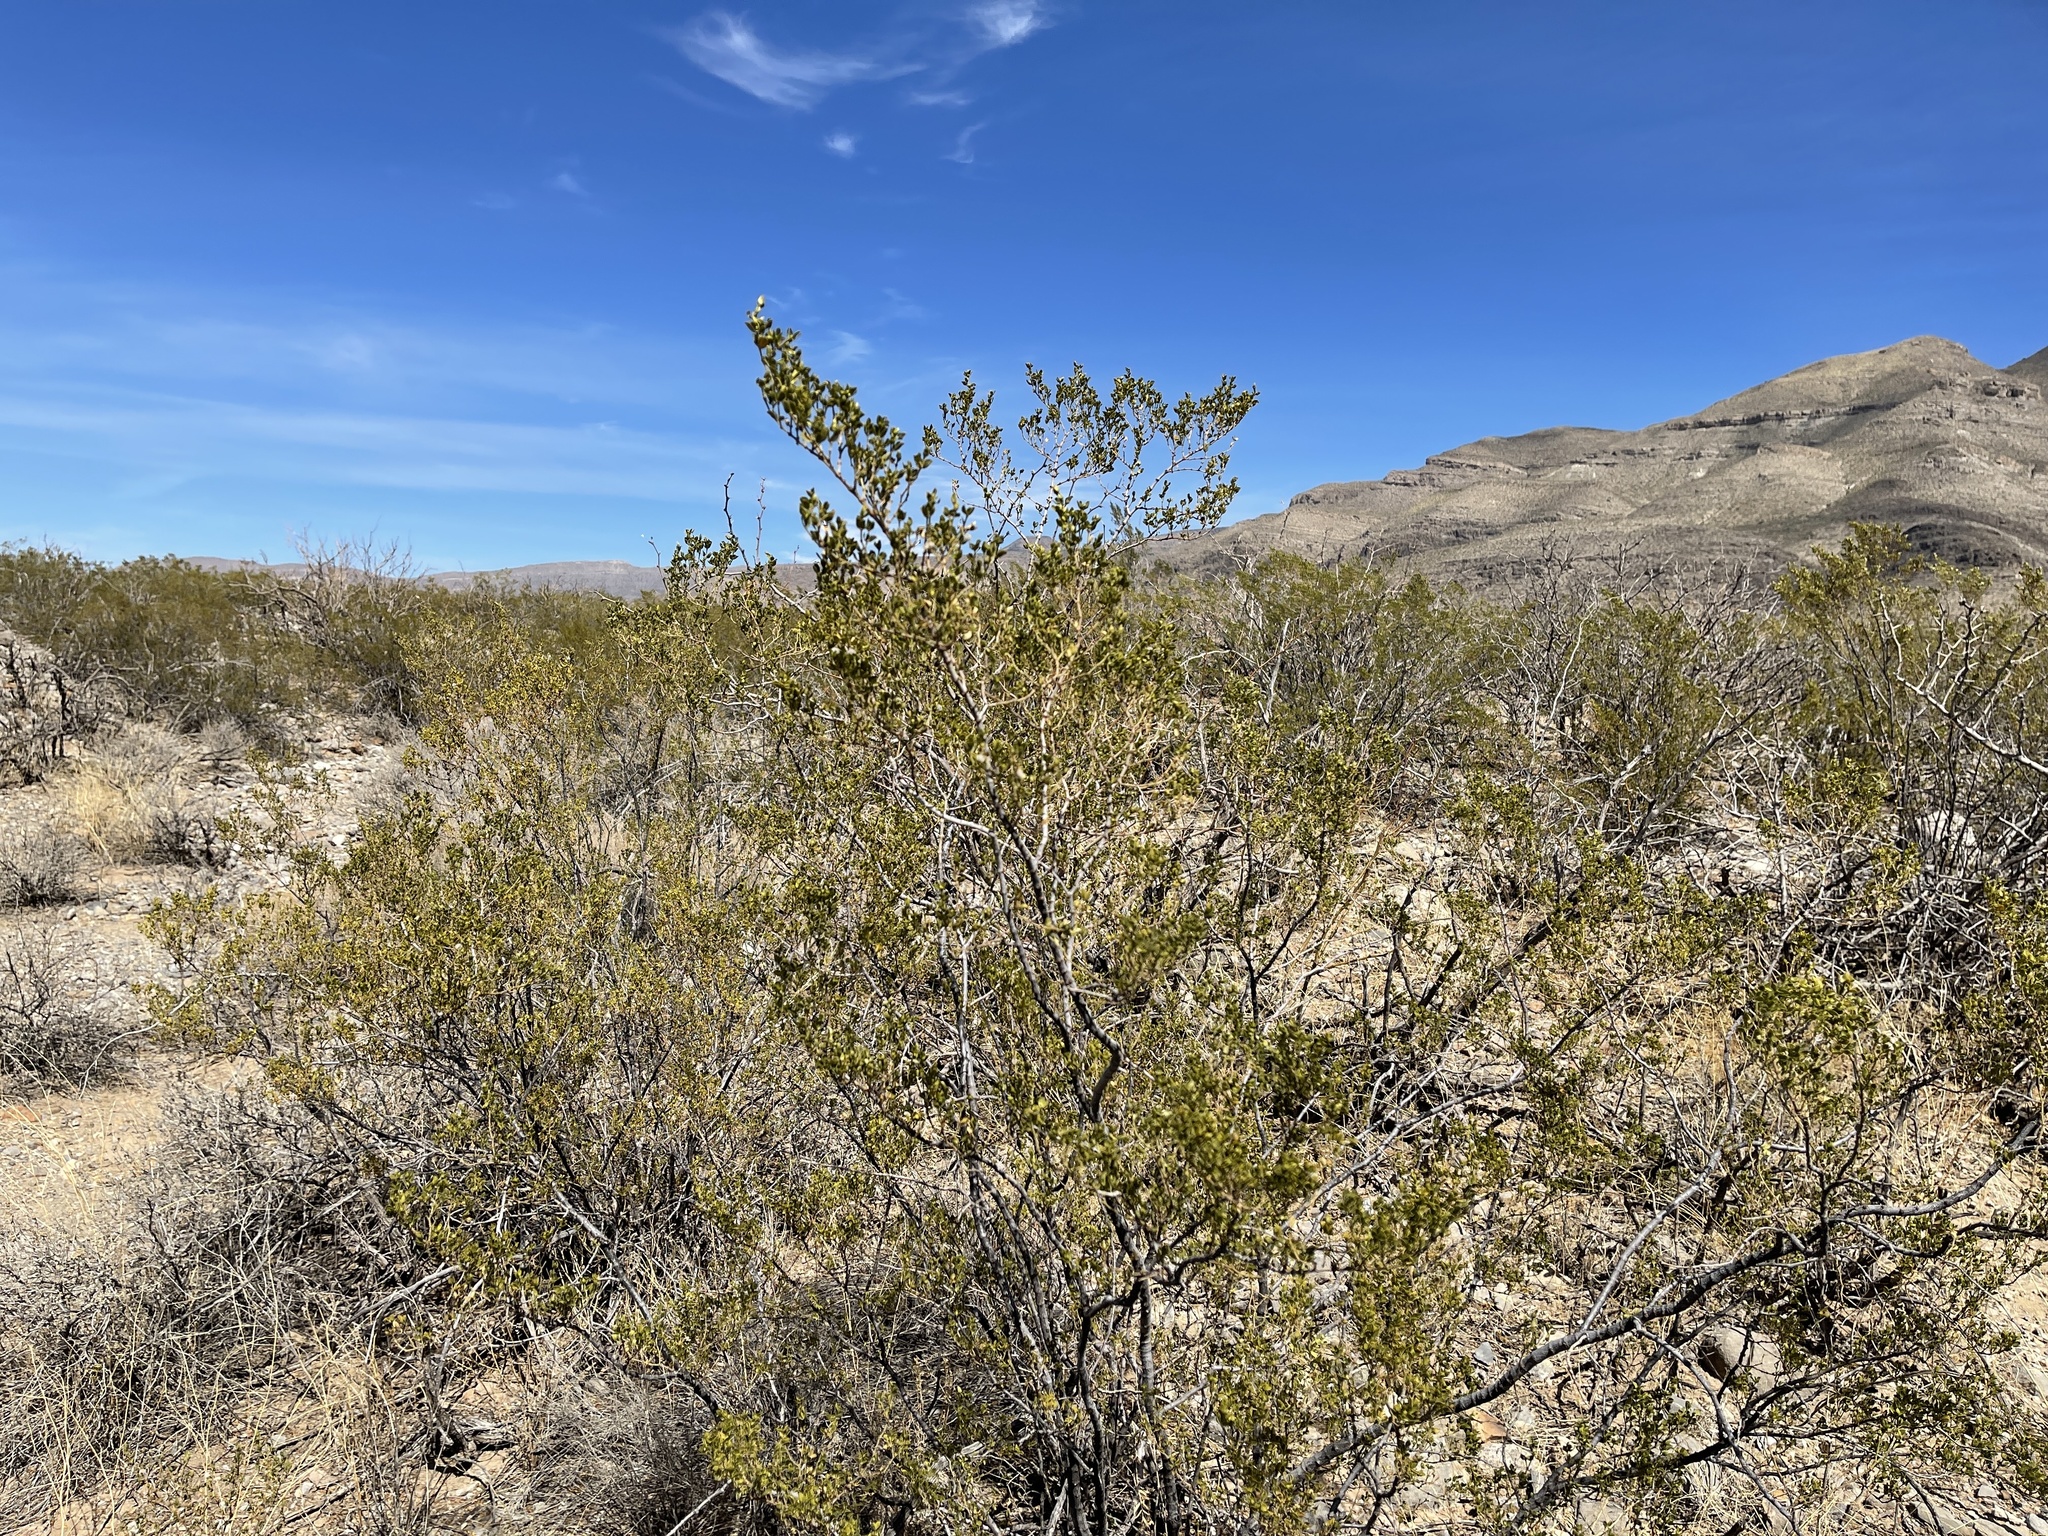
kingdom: Plantae
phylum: Tracheophyta
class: Magnoliopsida
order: Zygophyllales
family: Zygophyllaceae
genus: Larrea
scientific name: Larrea tridentata
